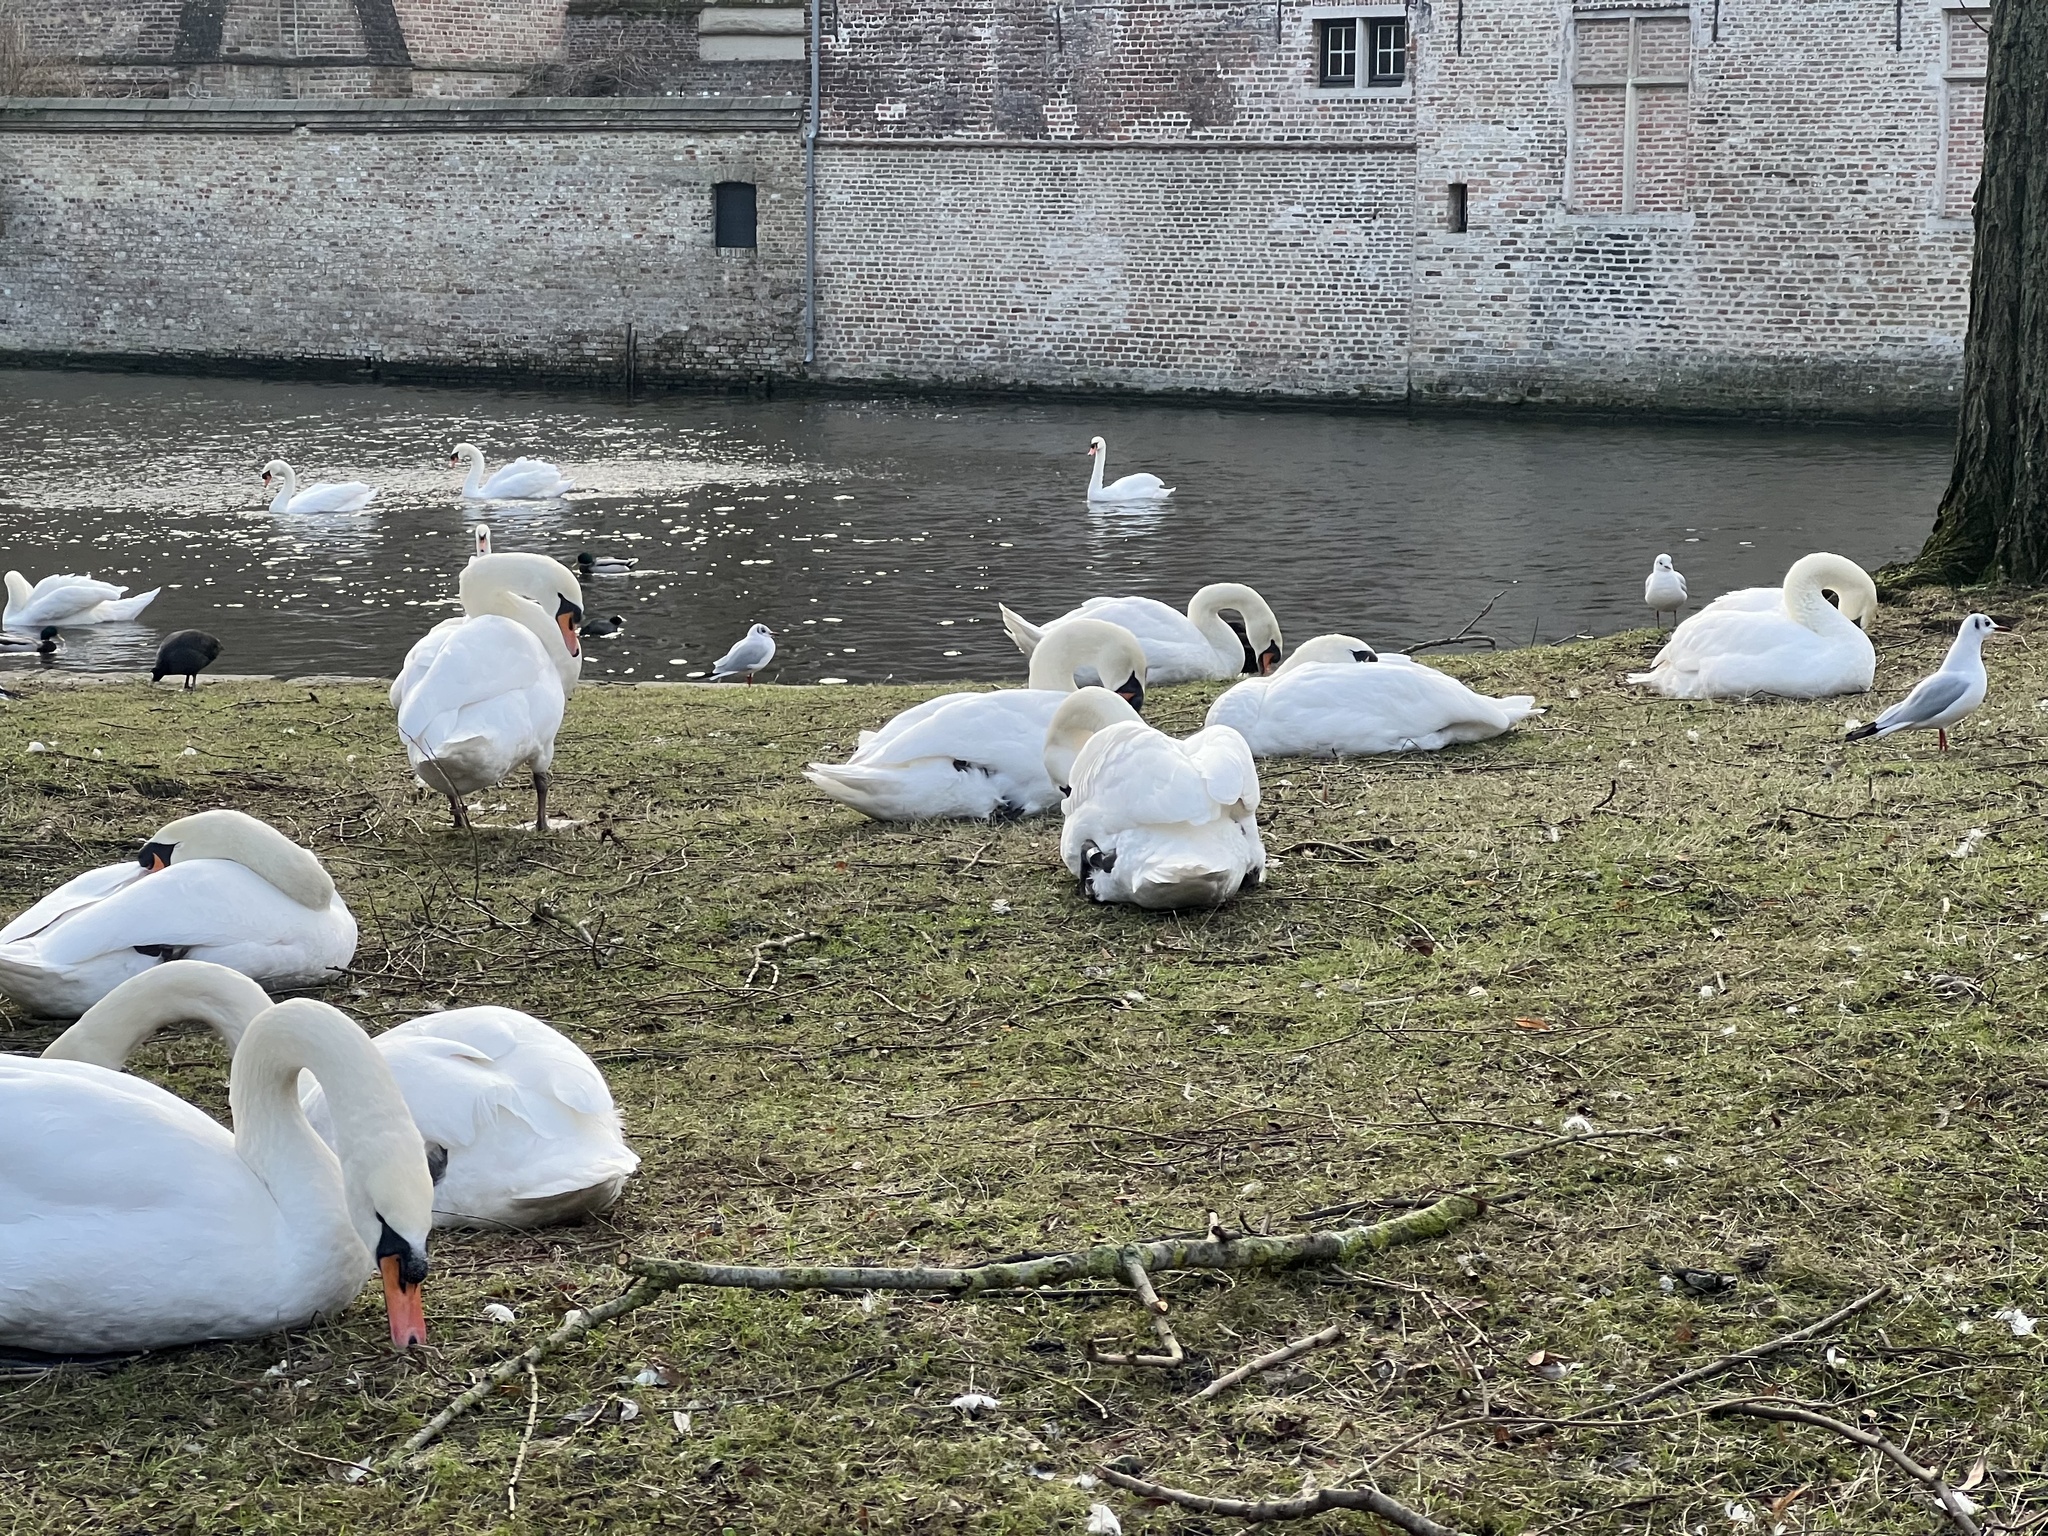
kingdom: Animalia
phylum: Chordata
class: Aves
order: Anseriformes
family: Anatidae
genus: Cygnus
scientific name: Cygnus olor
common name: Mute swan
